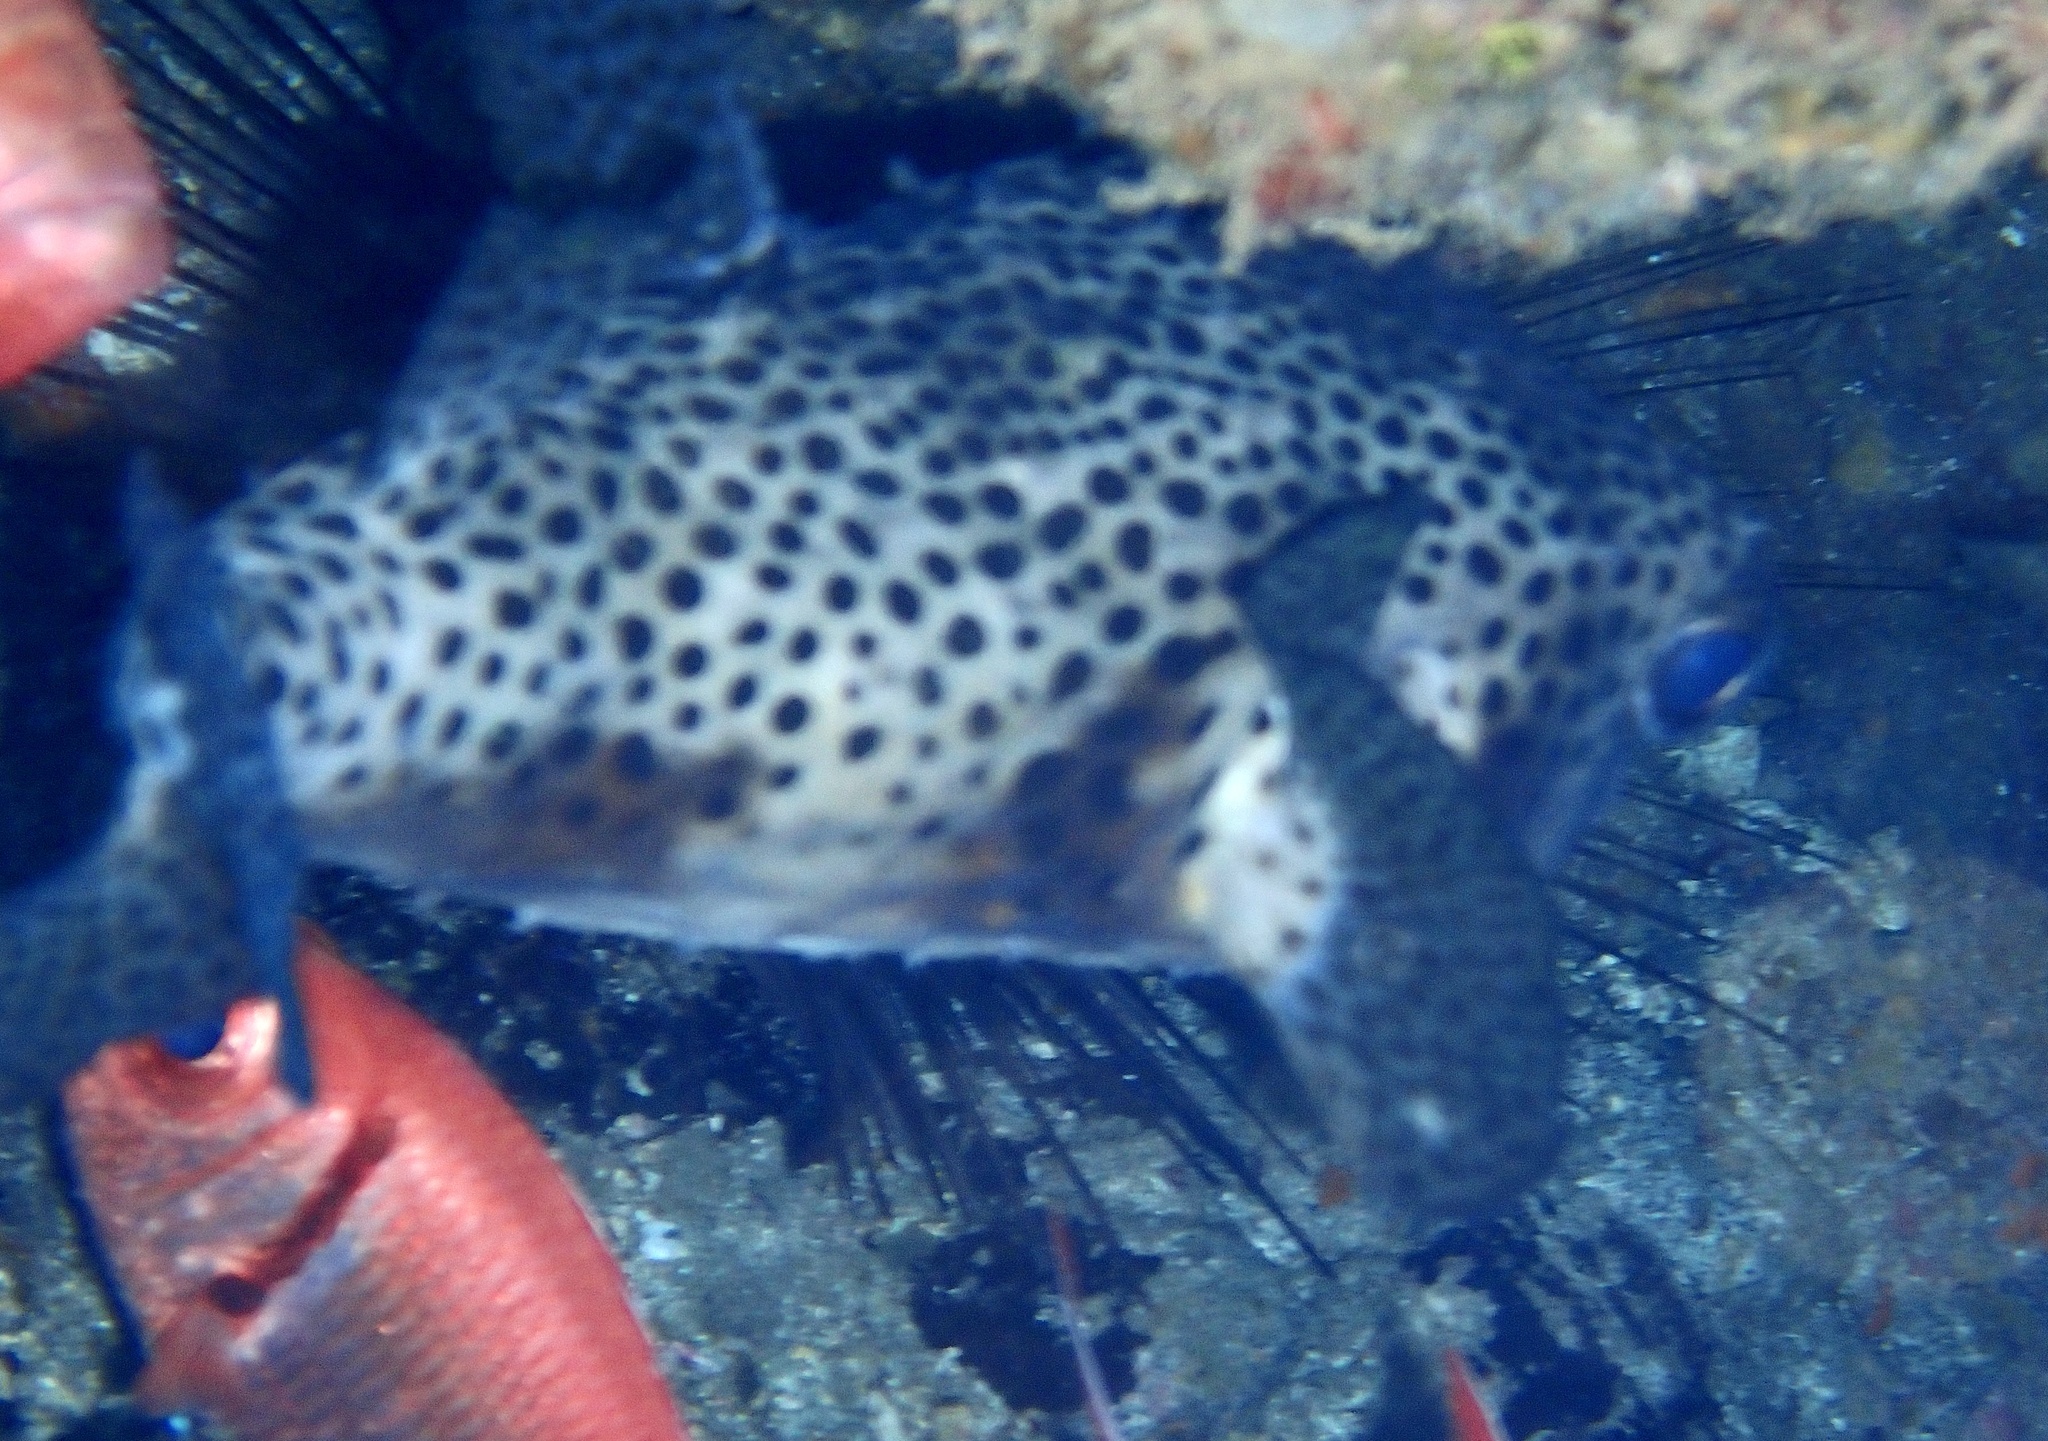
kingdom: Animalia
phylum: Chordata
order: Tetraodontiformes
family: Diodontidae
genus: Chilomycterus
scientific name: Chilomycterus reticulatus
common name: Spotfin burrfish
